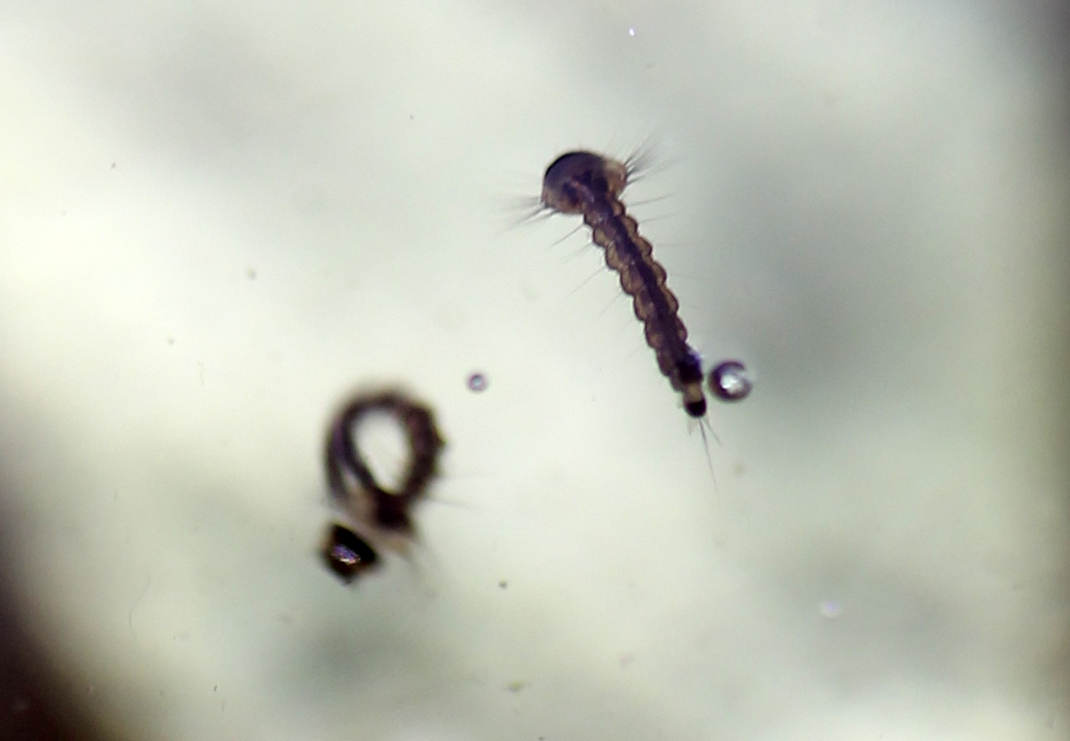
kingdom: Animalia
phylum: Arthropoda
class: Insecta
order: Diptera
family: Culicidae
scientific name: Culicidae
